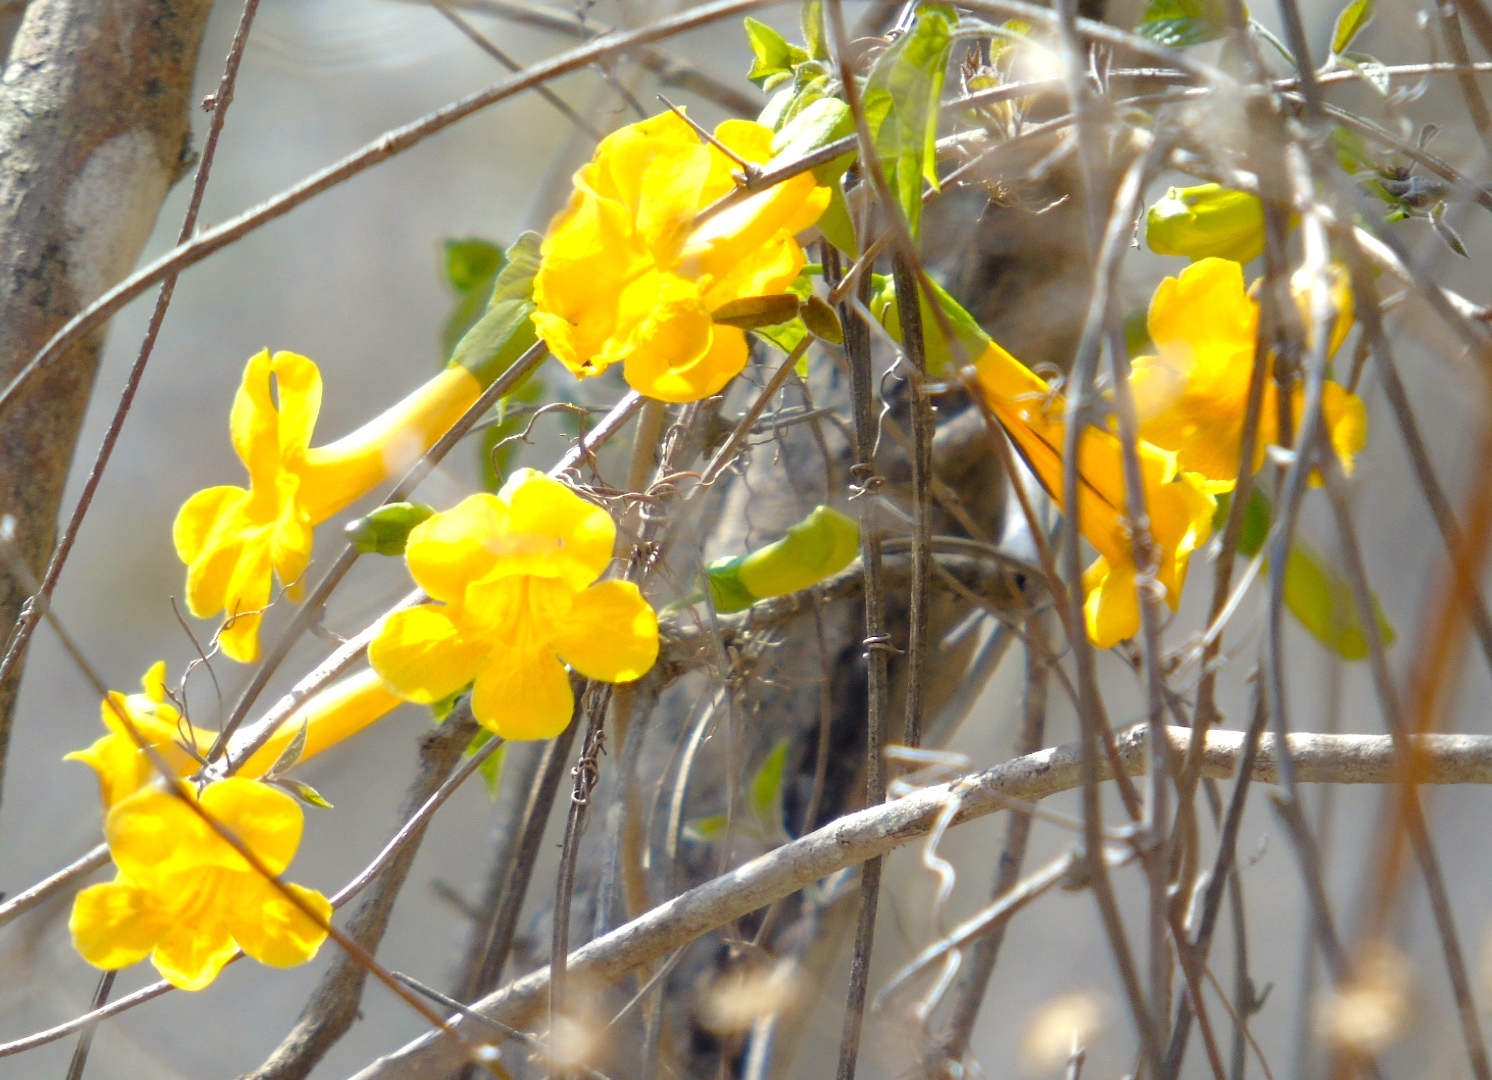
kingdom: Plantae
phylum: Tracheophyta
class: Magnoliopsida
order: Lamiales
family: Bignoniaceae
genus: Dolichandra
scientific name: Dolichandra unguis-cati
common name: Catclaw vine
